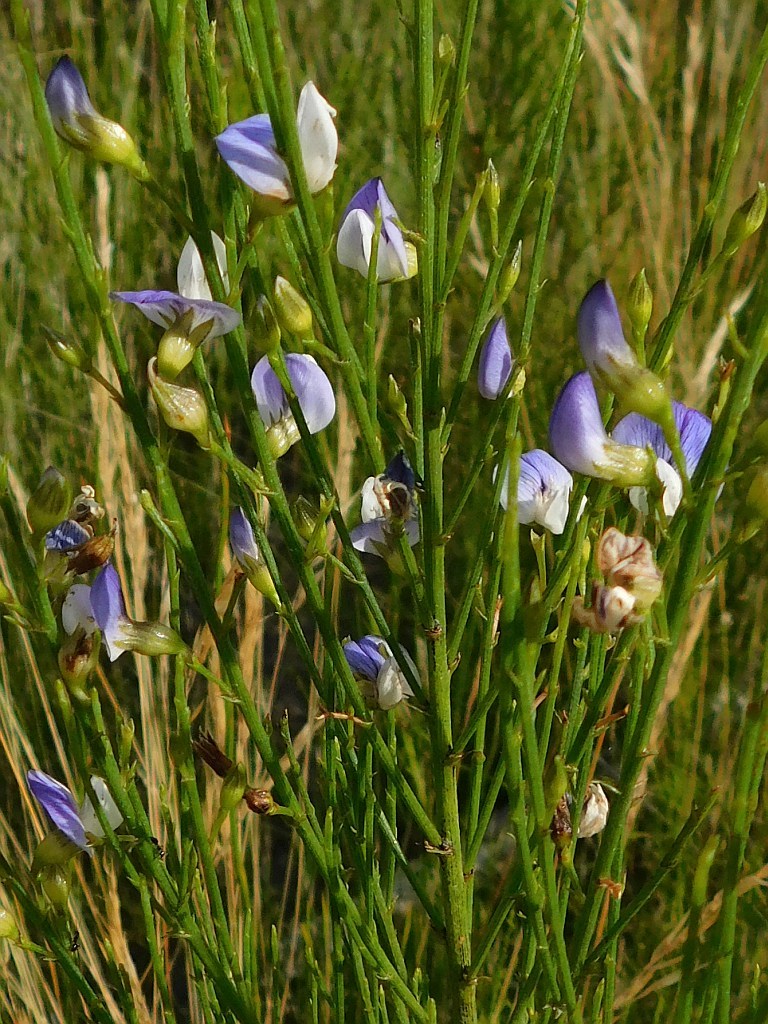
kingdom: Plantae
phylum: Tracheophyta
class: Magnoliopsida
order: Fabales
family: Fabaceae
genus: Psoralea
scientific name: Psoralea usitata
